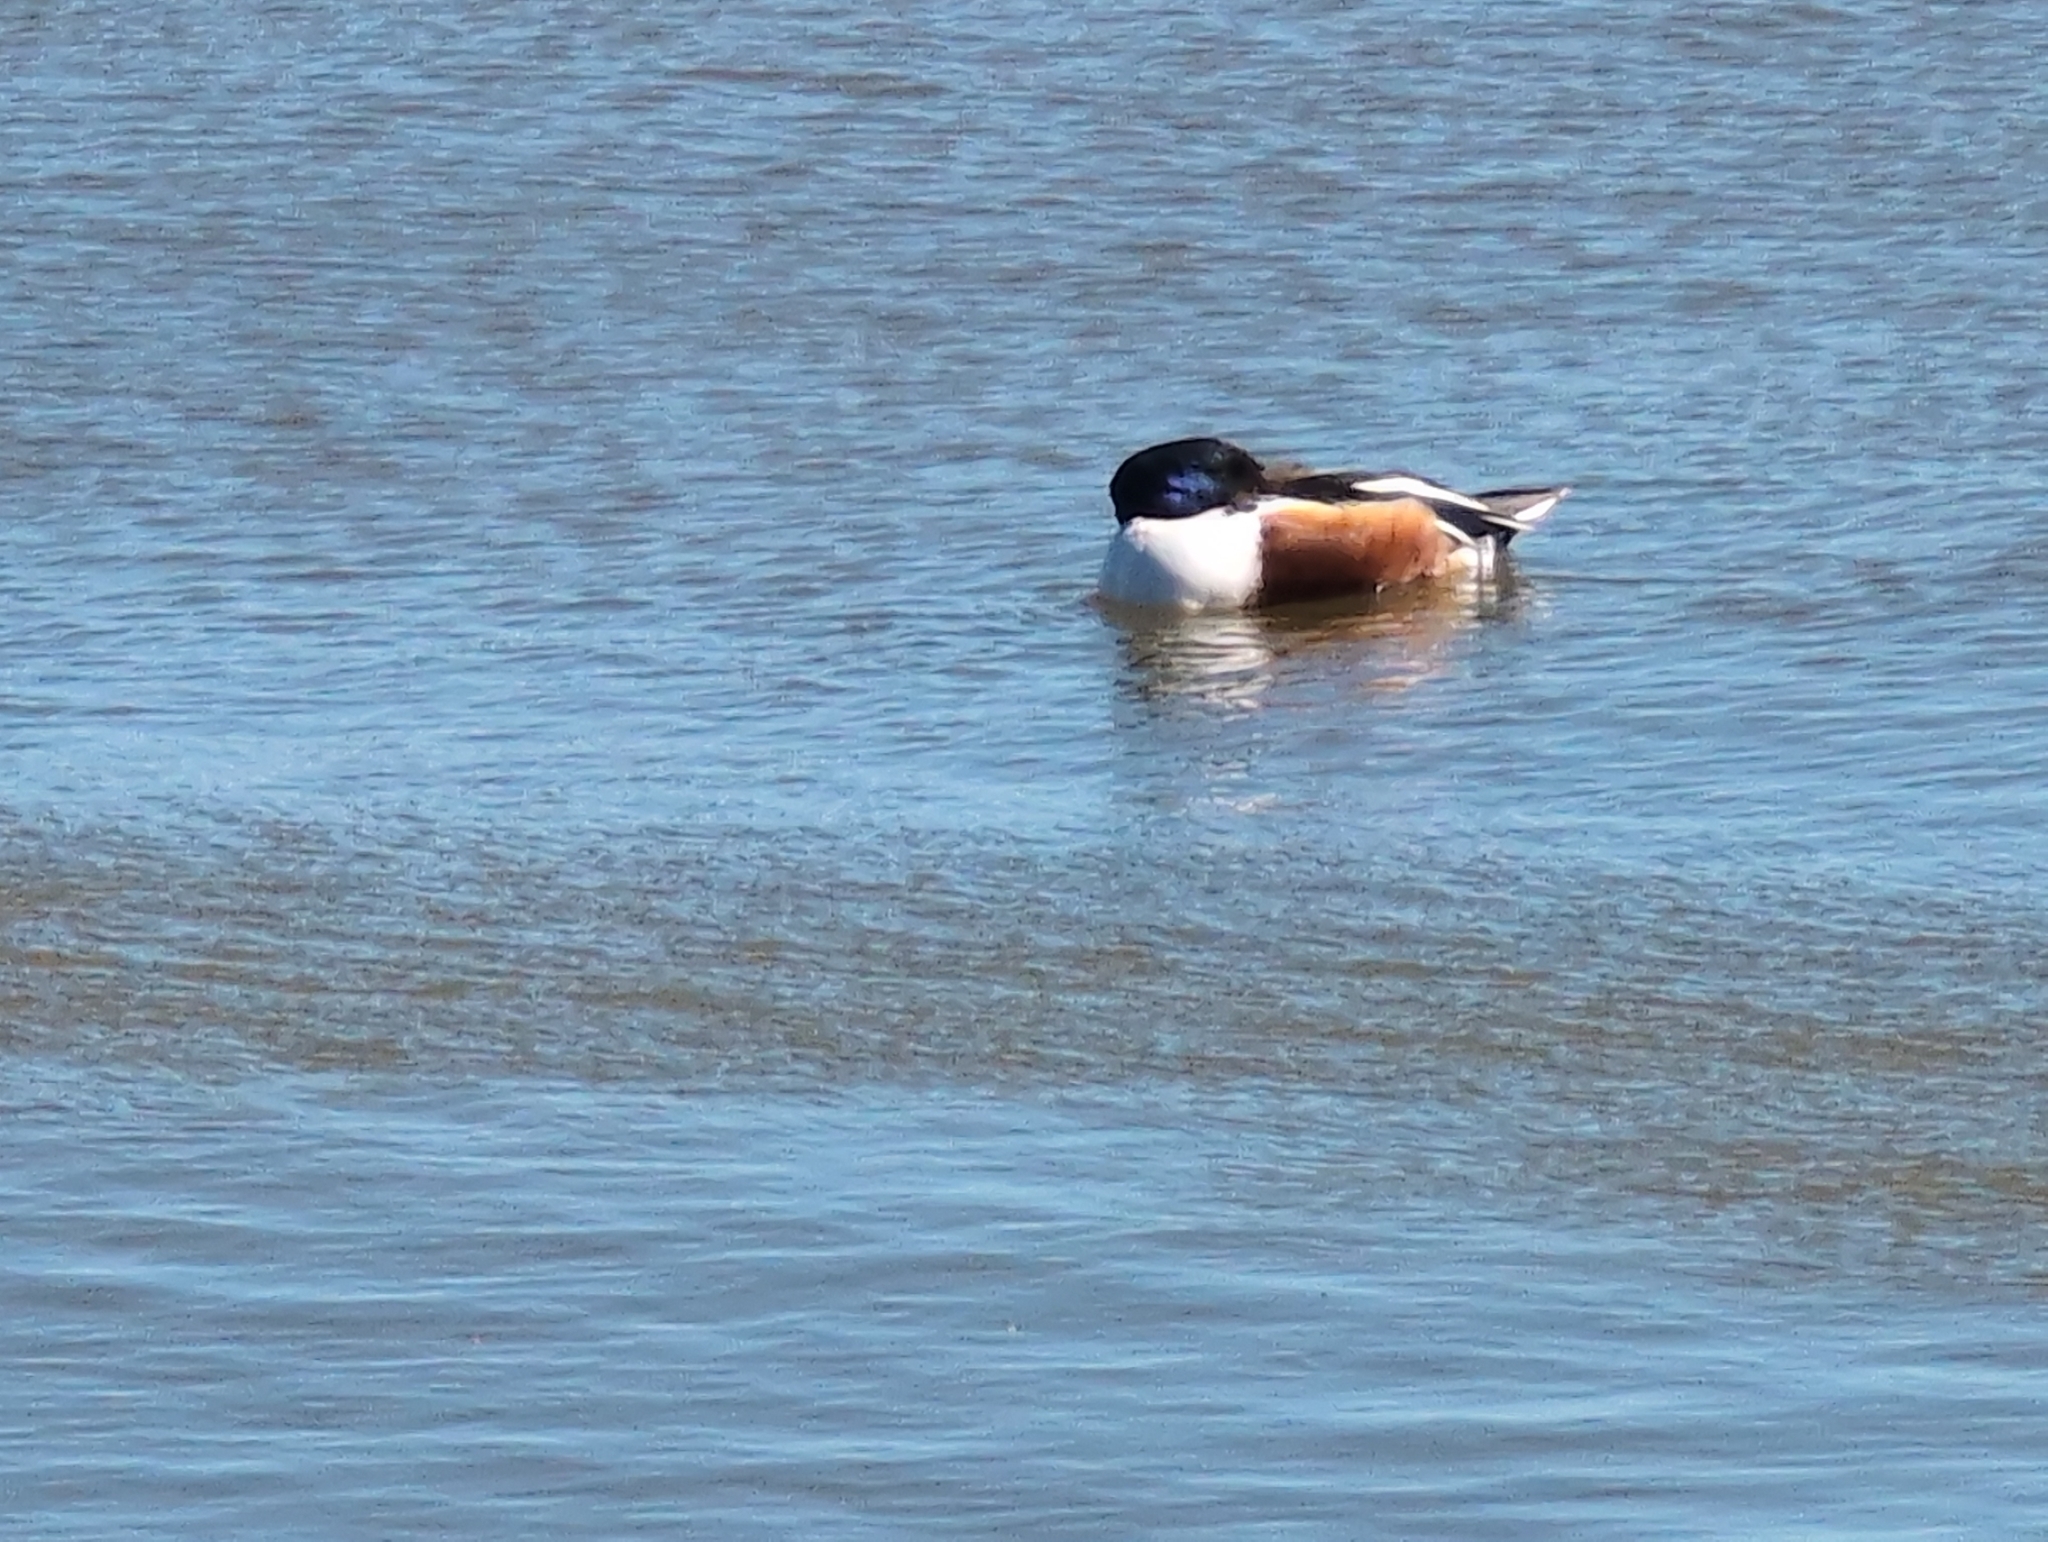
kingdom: Animalia
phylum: Chordata
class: Aves
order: Anseriformes
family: Anatidae
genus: Spatula
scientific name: Spatula clypeata
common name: Northern shoveler
